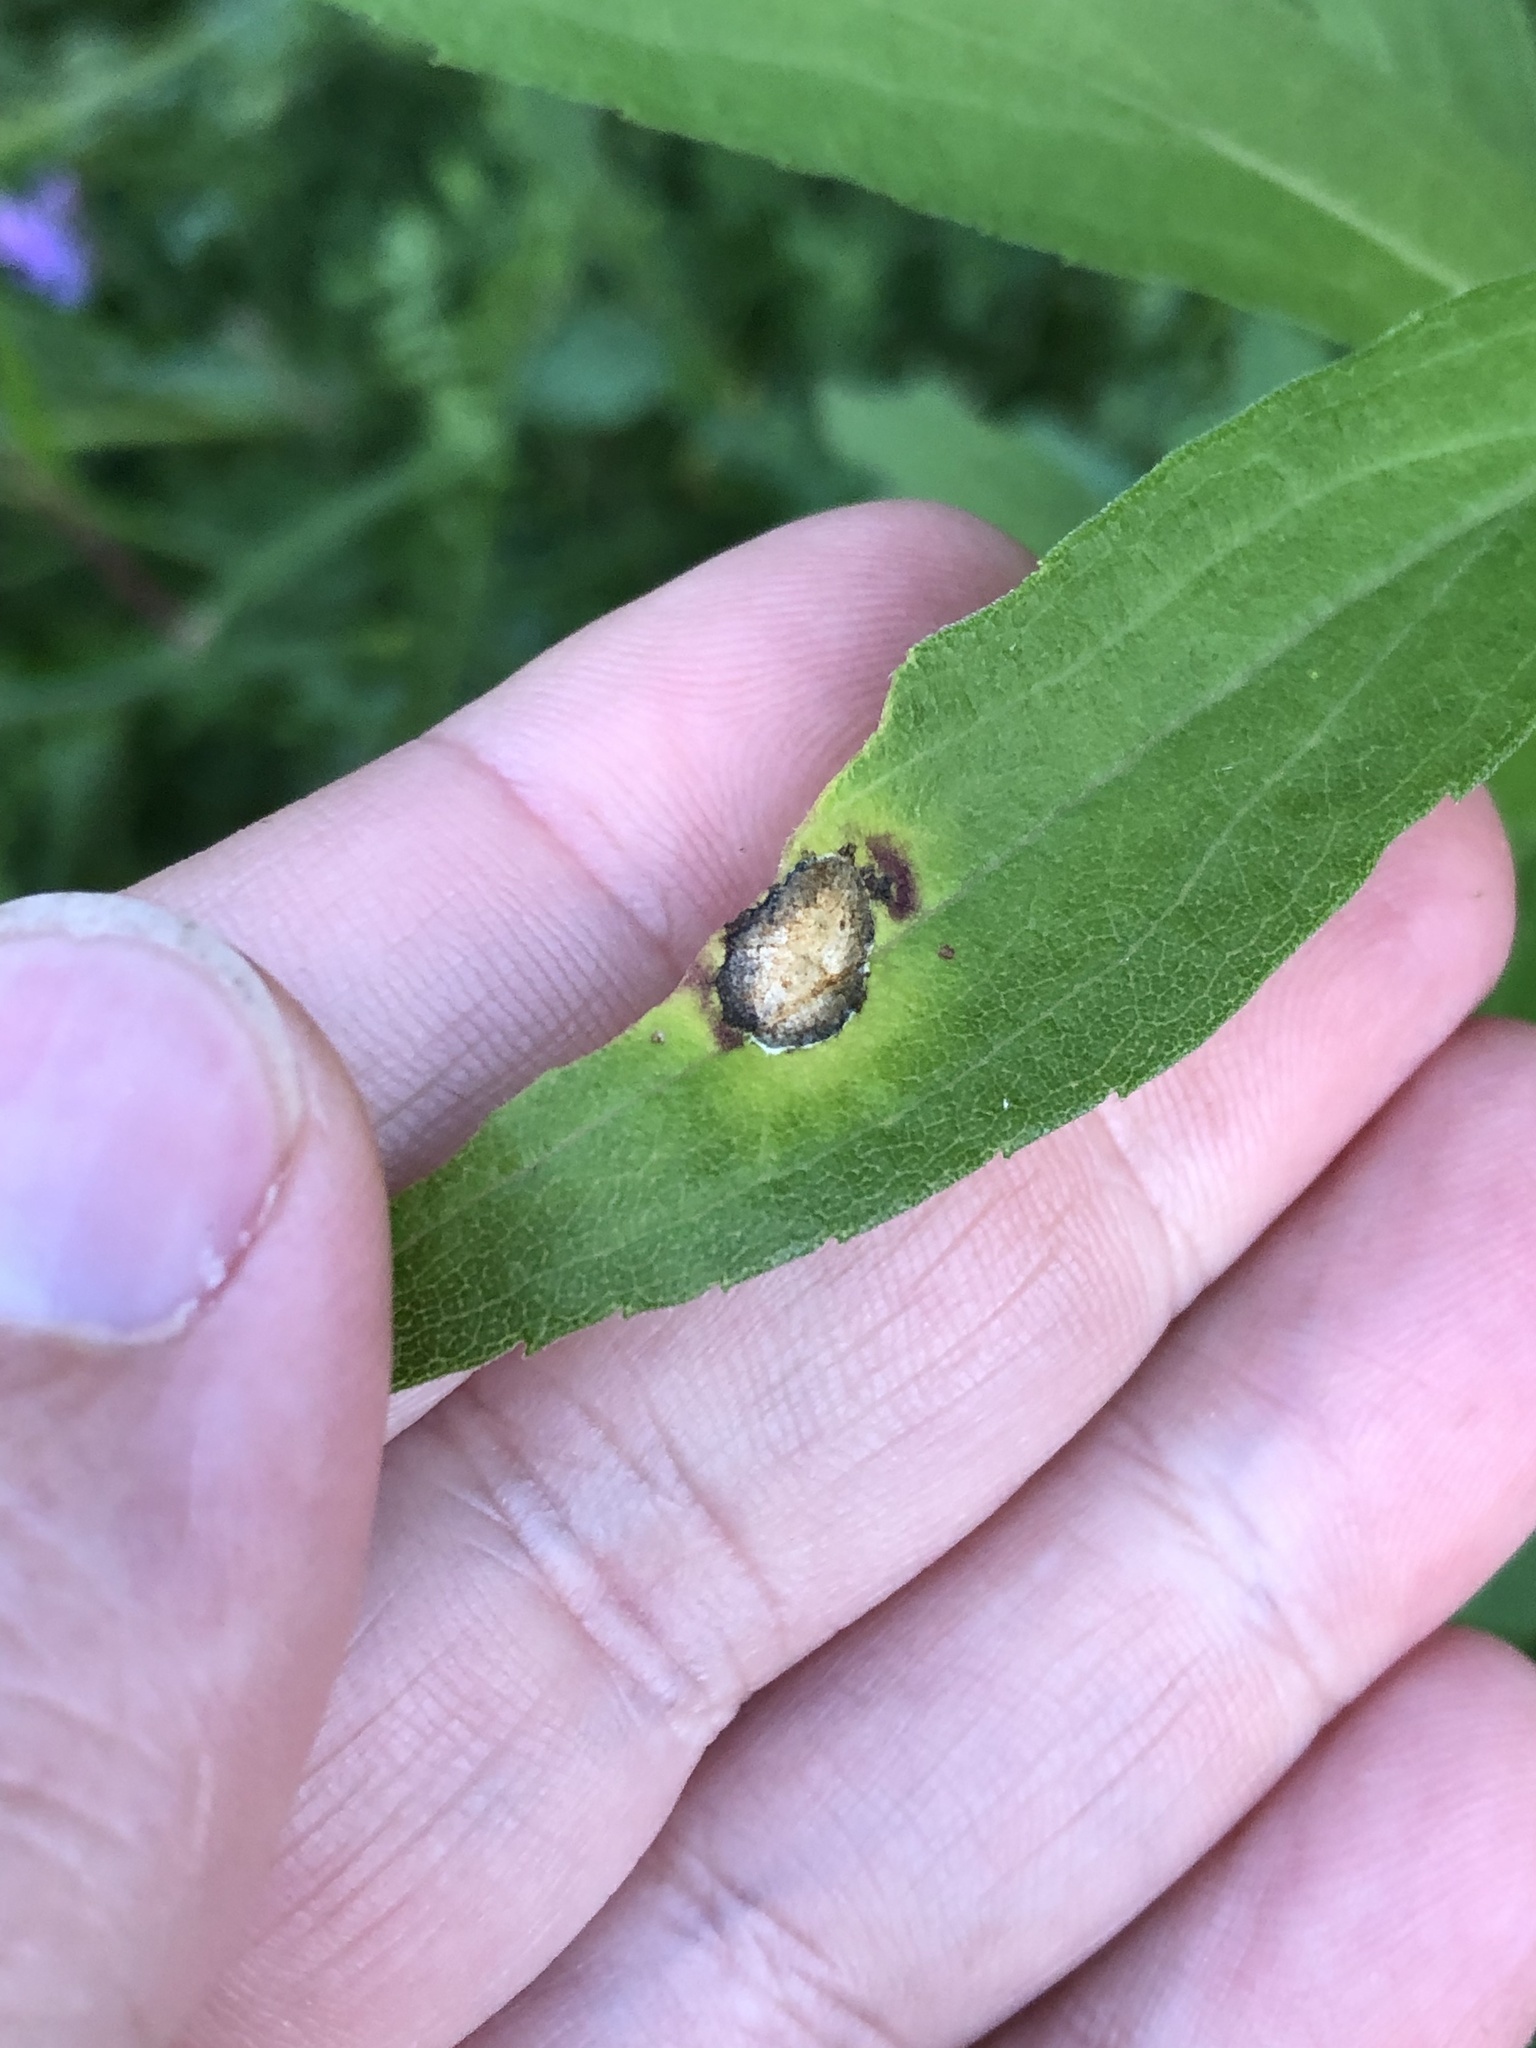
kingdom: Animalia
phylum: Arthropoda
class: Insecta
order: Diptera
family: Cecidomyiidae
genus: Asteromyia
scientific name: Asteromyia carbonifera
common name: Carbonifera goldenrod gall midge
